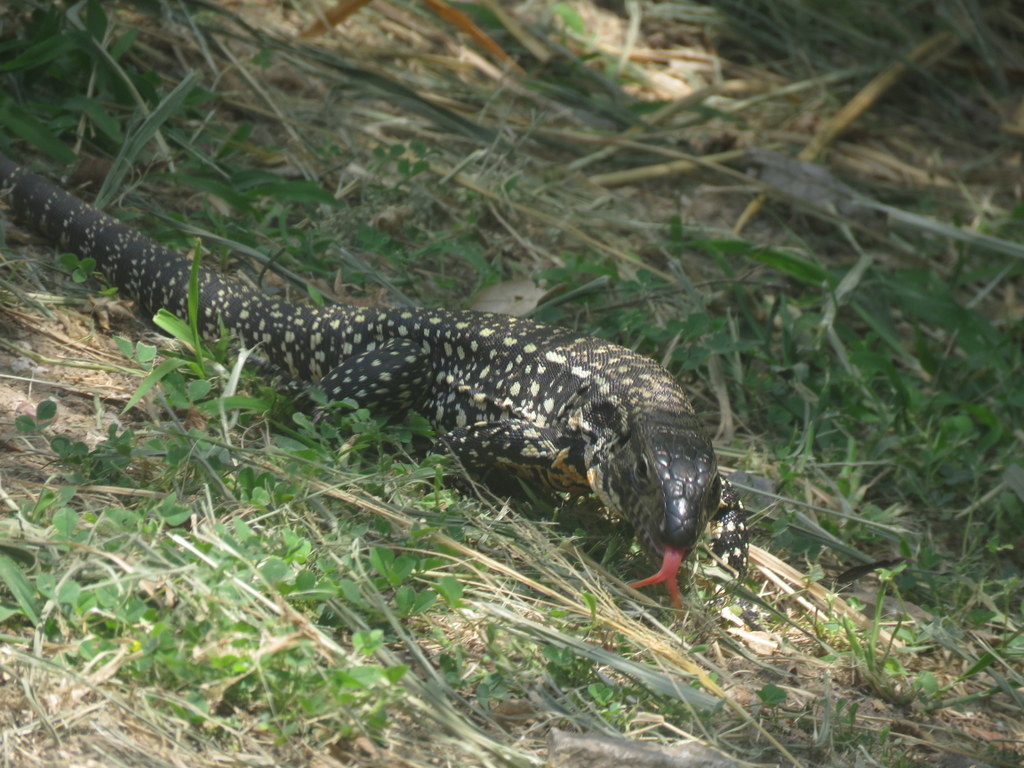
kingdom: Animalia
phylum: Chordata
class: Squamata
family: Teiidae
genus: Salvator
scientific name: Salvator merianae
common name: Argentine black and white tegu
